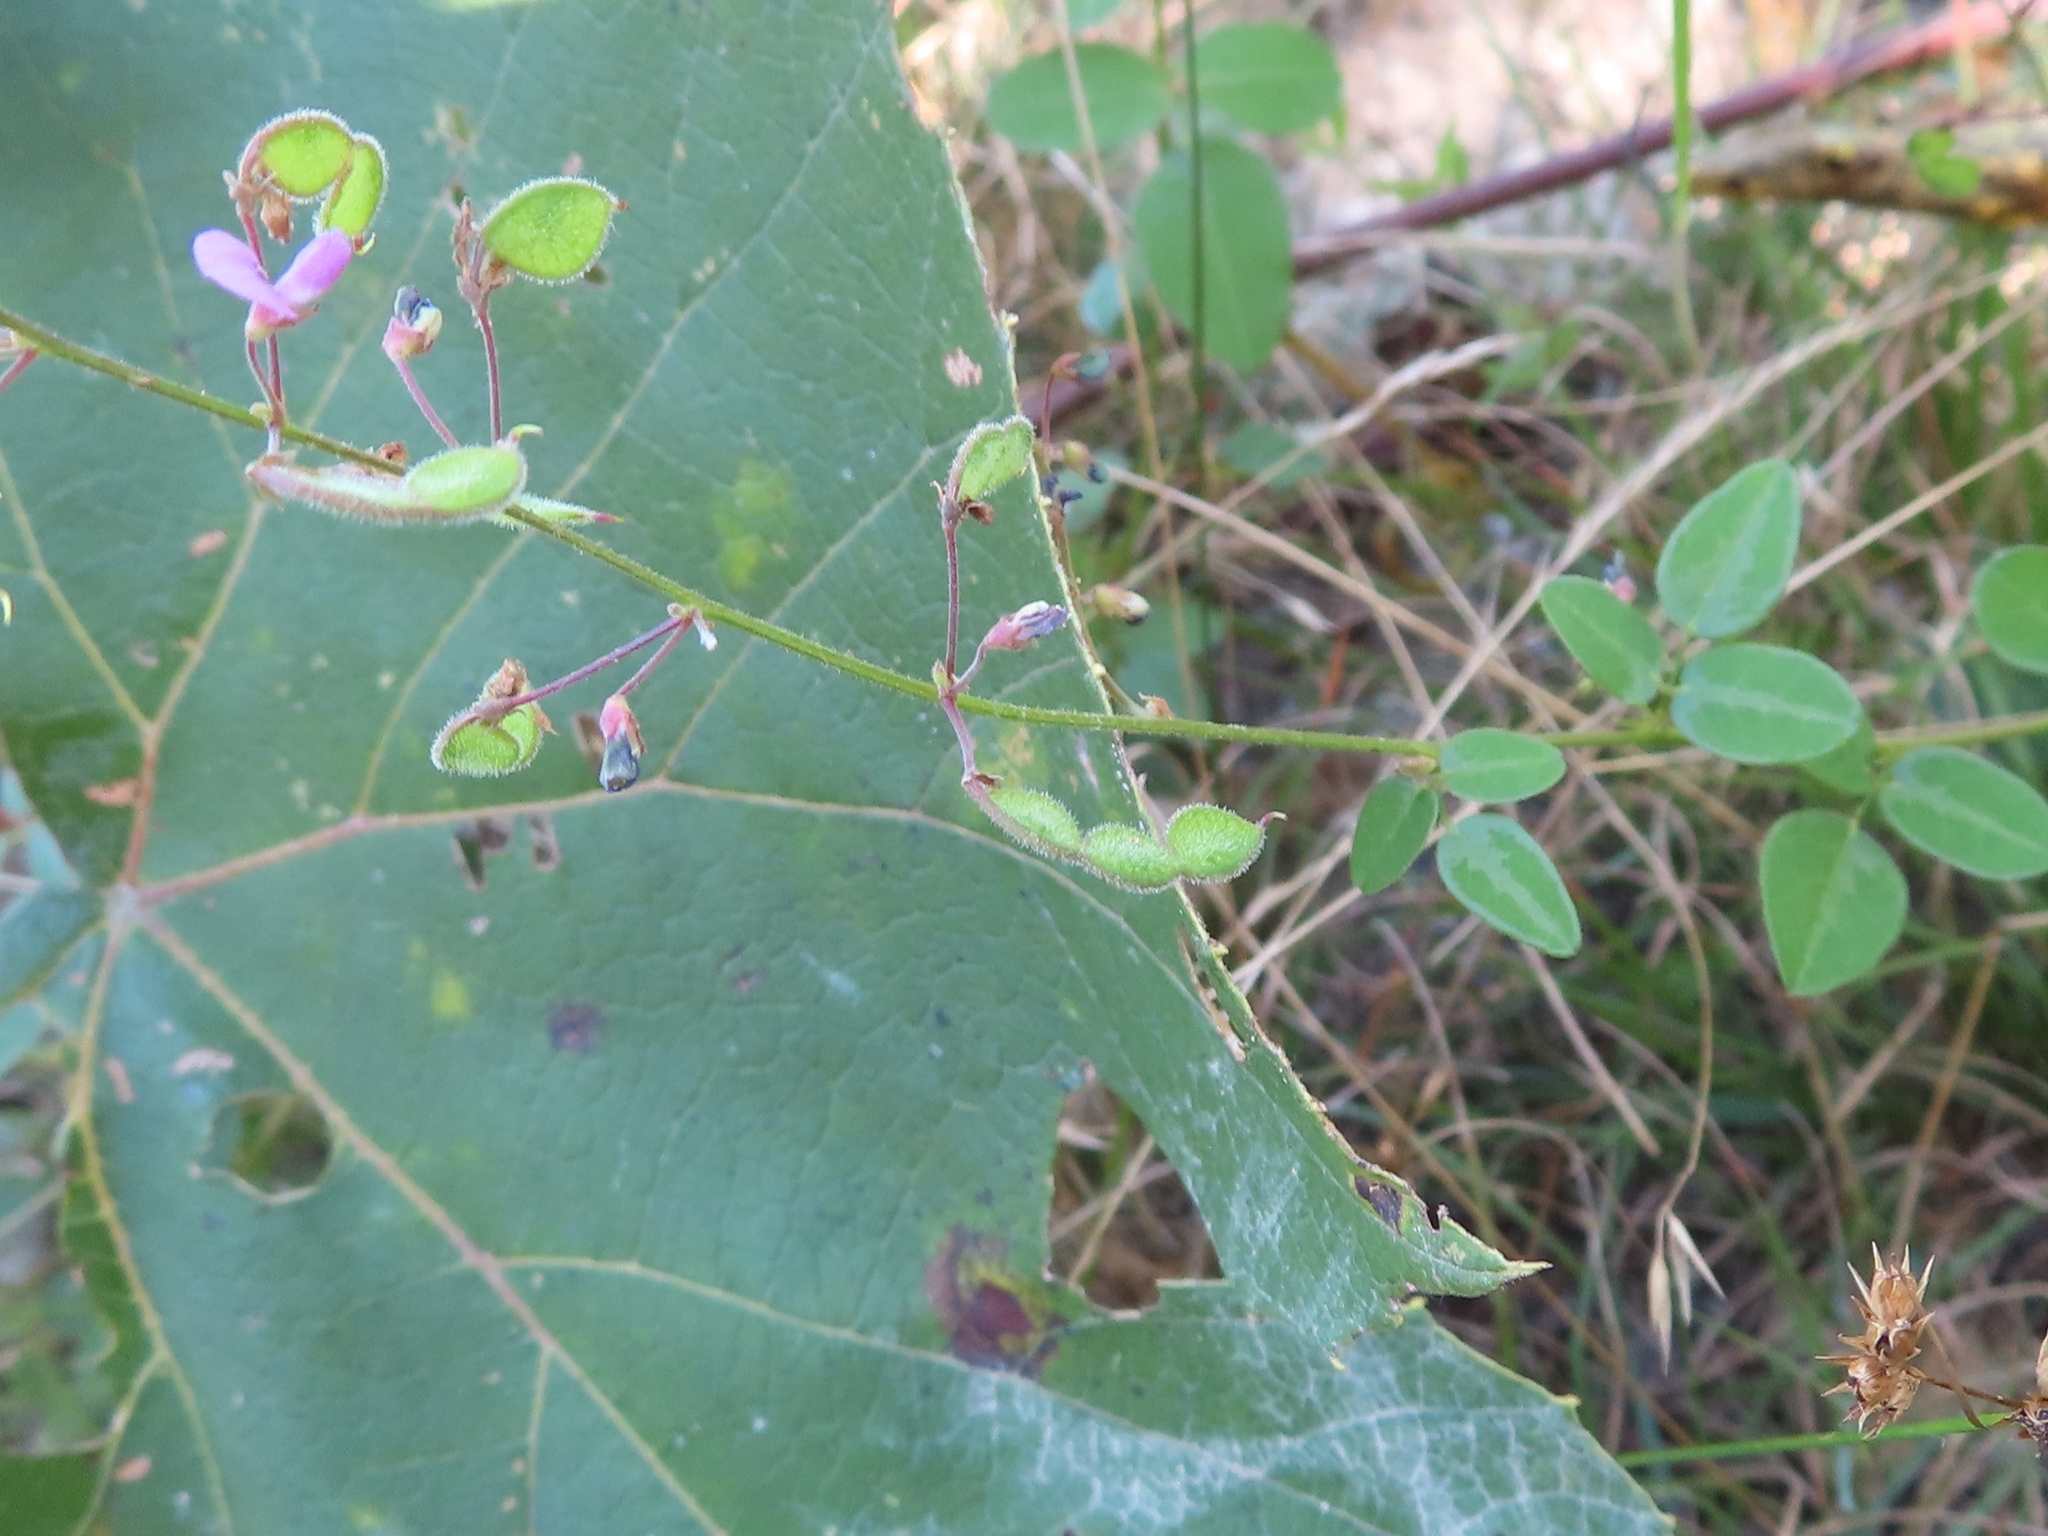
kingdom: Plantae
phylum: Tracheophyta
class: Magnoliopsida
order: Fabales
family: Fabaceae
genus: Desmodium
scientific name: Desmodium ciliare
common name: Hairy small-leaf ticktrefoil
